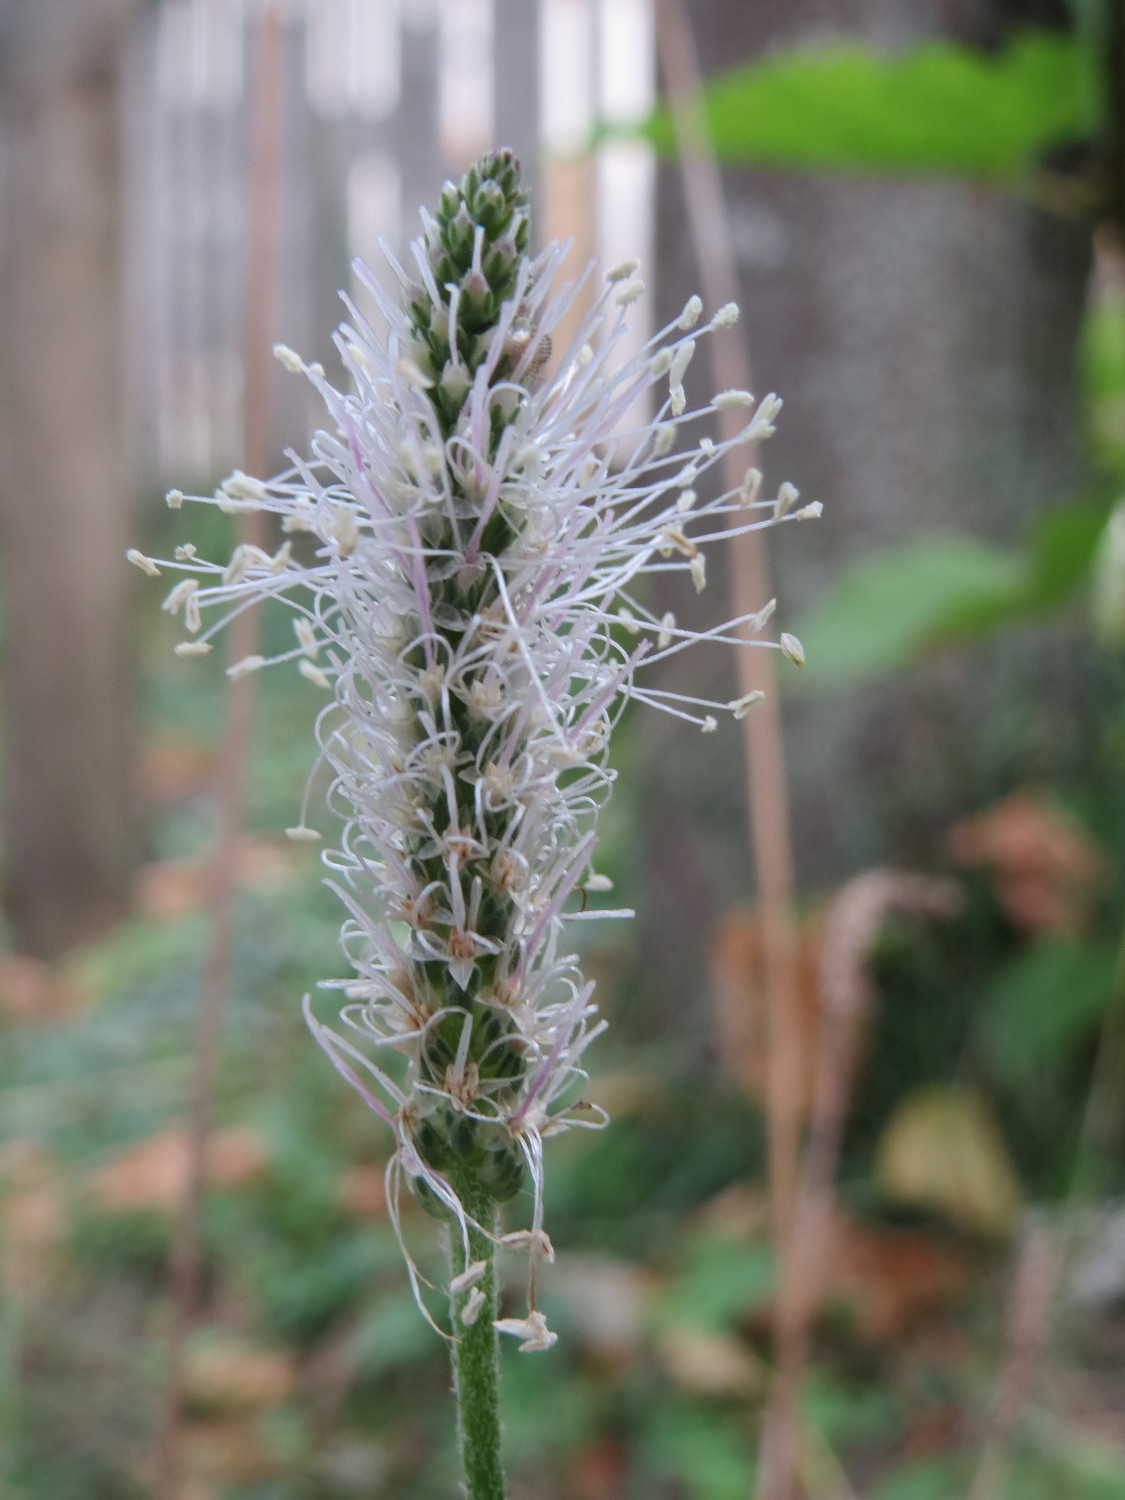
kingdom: Plantae
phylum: Tracheophyta
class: Magnoliopsida
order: Lamiales
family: Plantaginaceae
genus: Plantago
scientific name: Plantago media
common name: Hoary plantain
